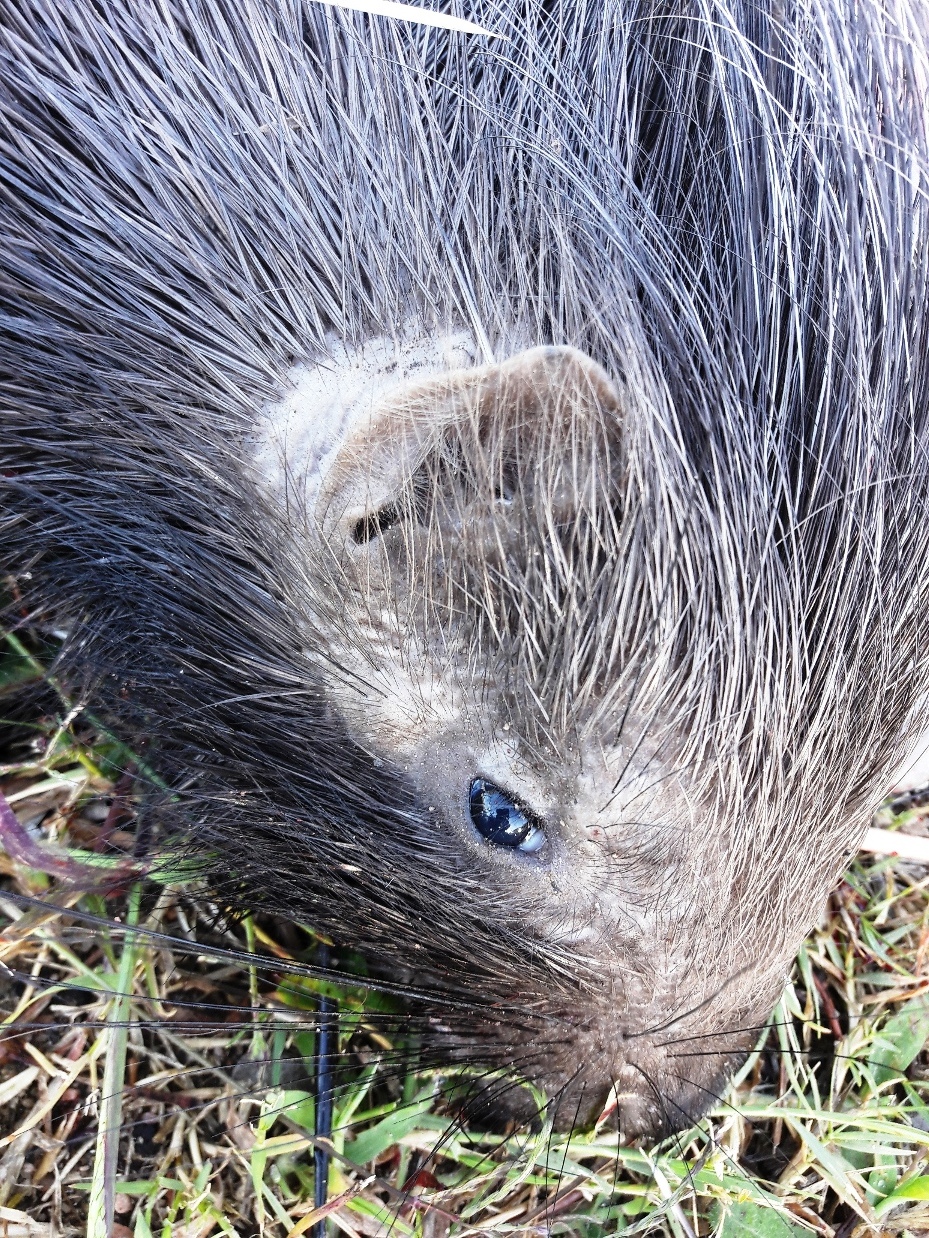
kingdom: Animalia
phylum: Chordata
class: Mammalia
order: Rodentia
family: Hystricidae
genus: Hystrix
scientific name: Hystrix africaeaustralis
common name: Cape porcupine
